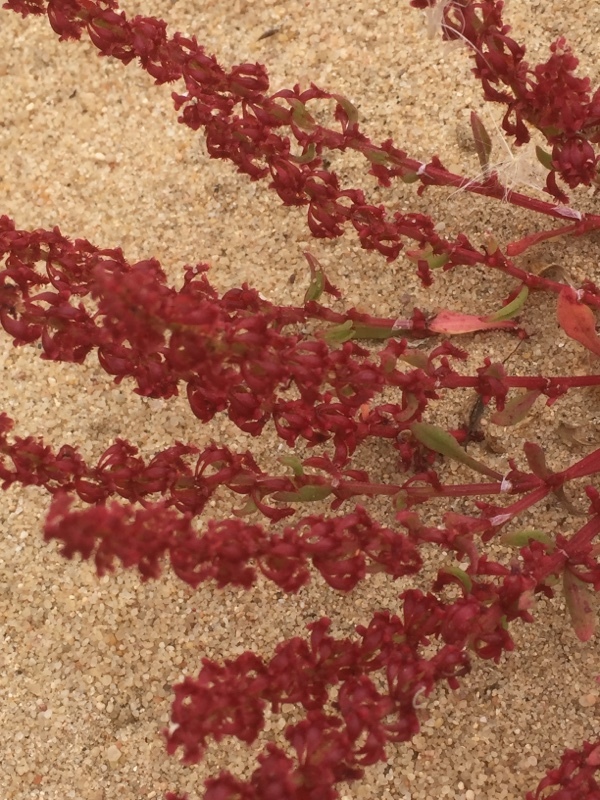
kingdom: Plantae
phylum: Tracheophyta
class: Magnoliopsida
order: Caryophyllales
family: Polygonaceae
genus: Rumex
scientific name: Rumex bucephalophorus
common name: Red dock
